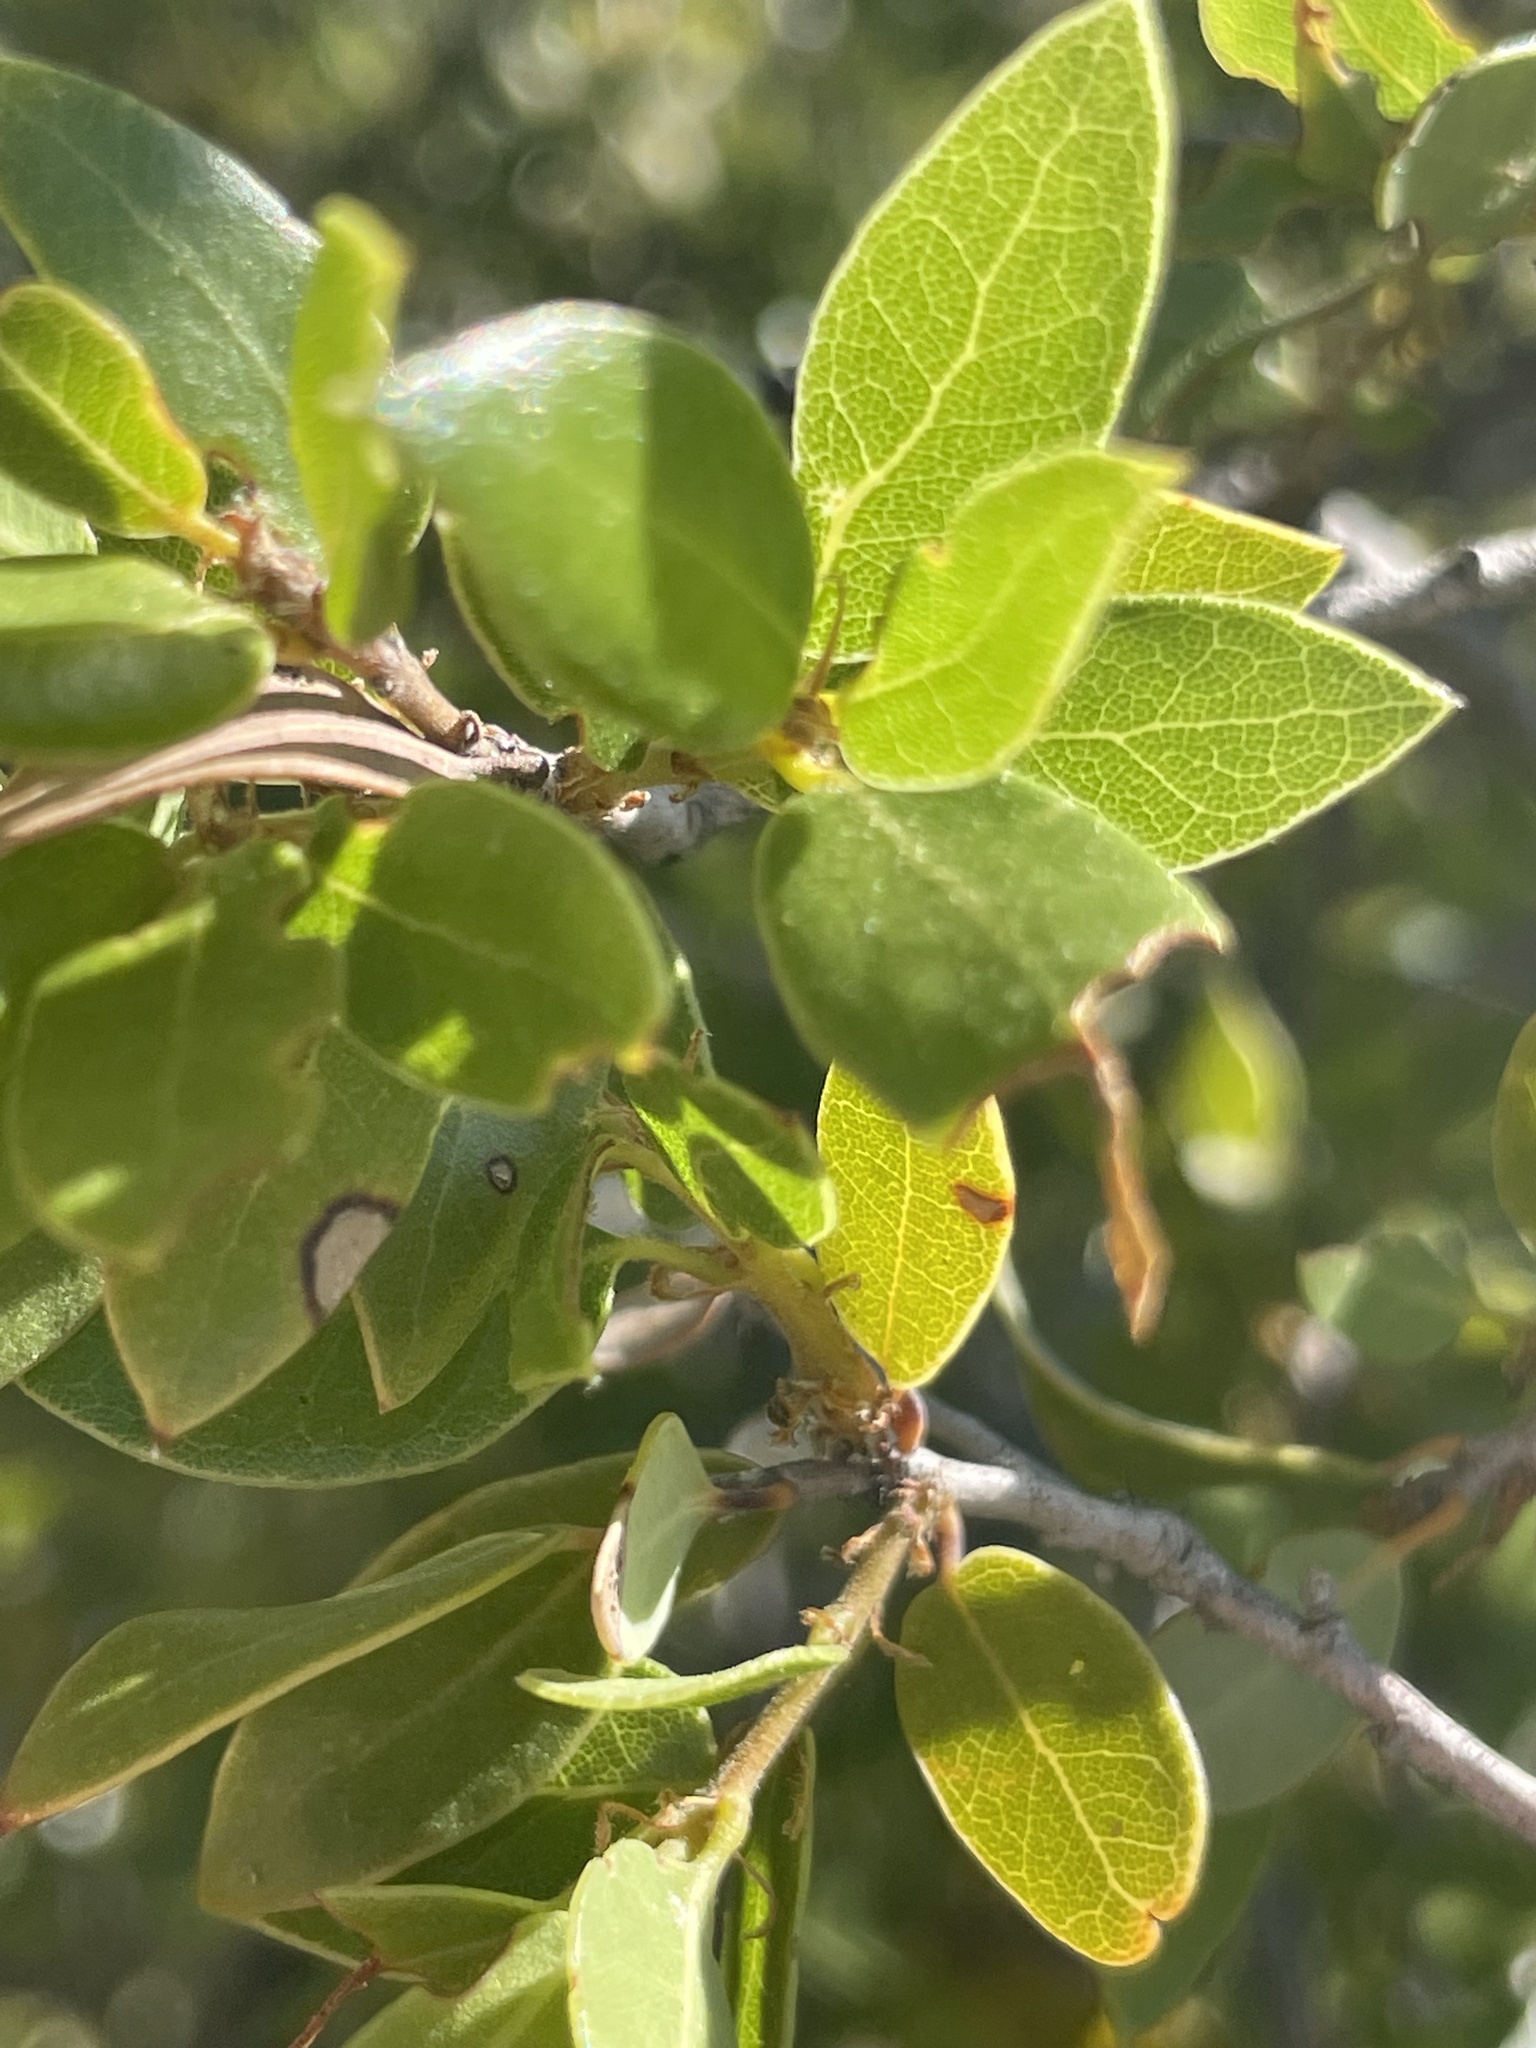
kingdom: Plantae
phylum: Tracheophyta
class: Magnoliopsida
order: Fagales
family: Fagaceae
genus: Quercus
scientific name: Quercus cedrosensis
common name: Cedros island oak
